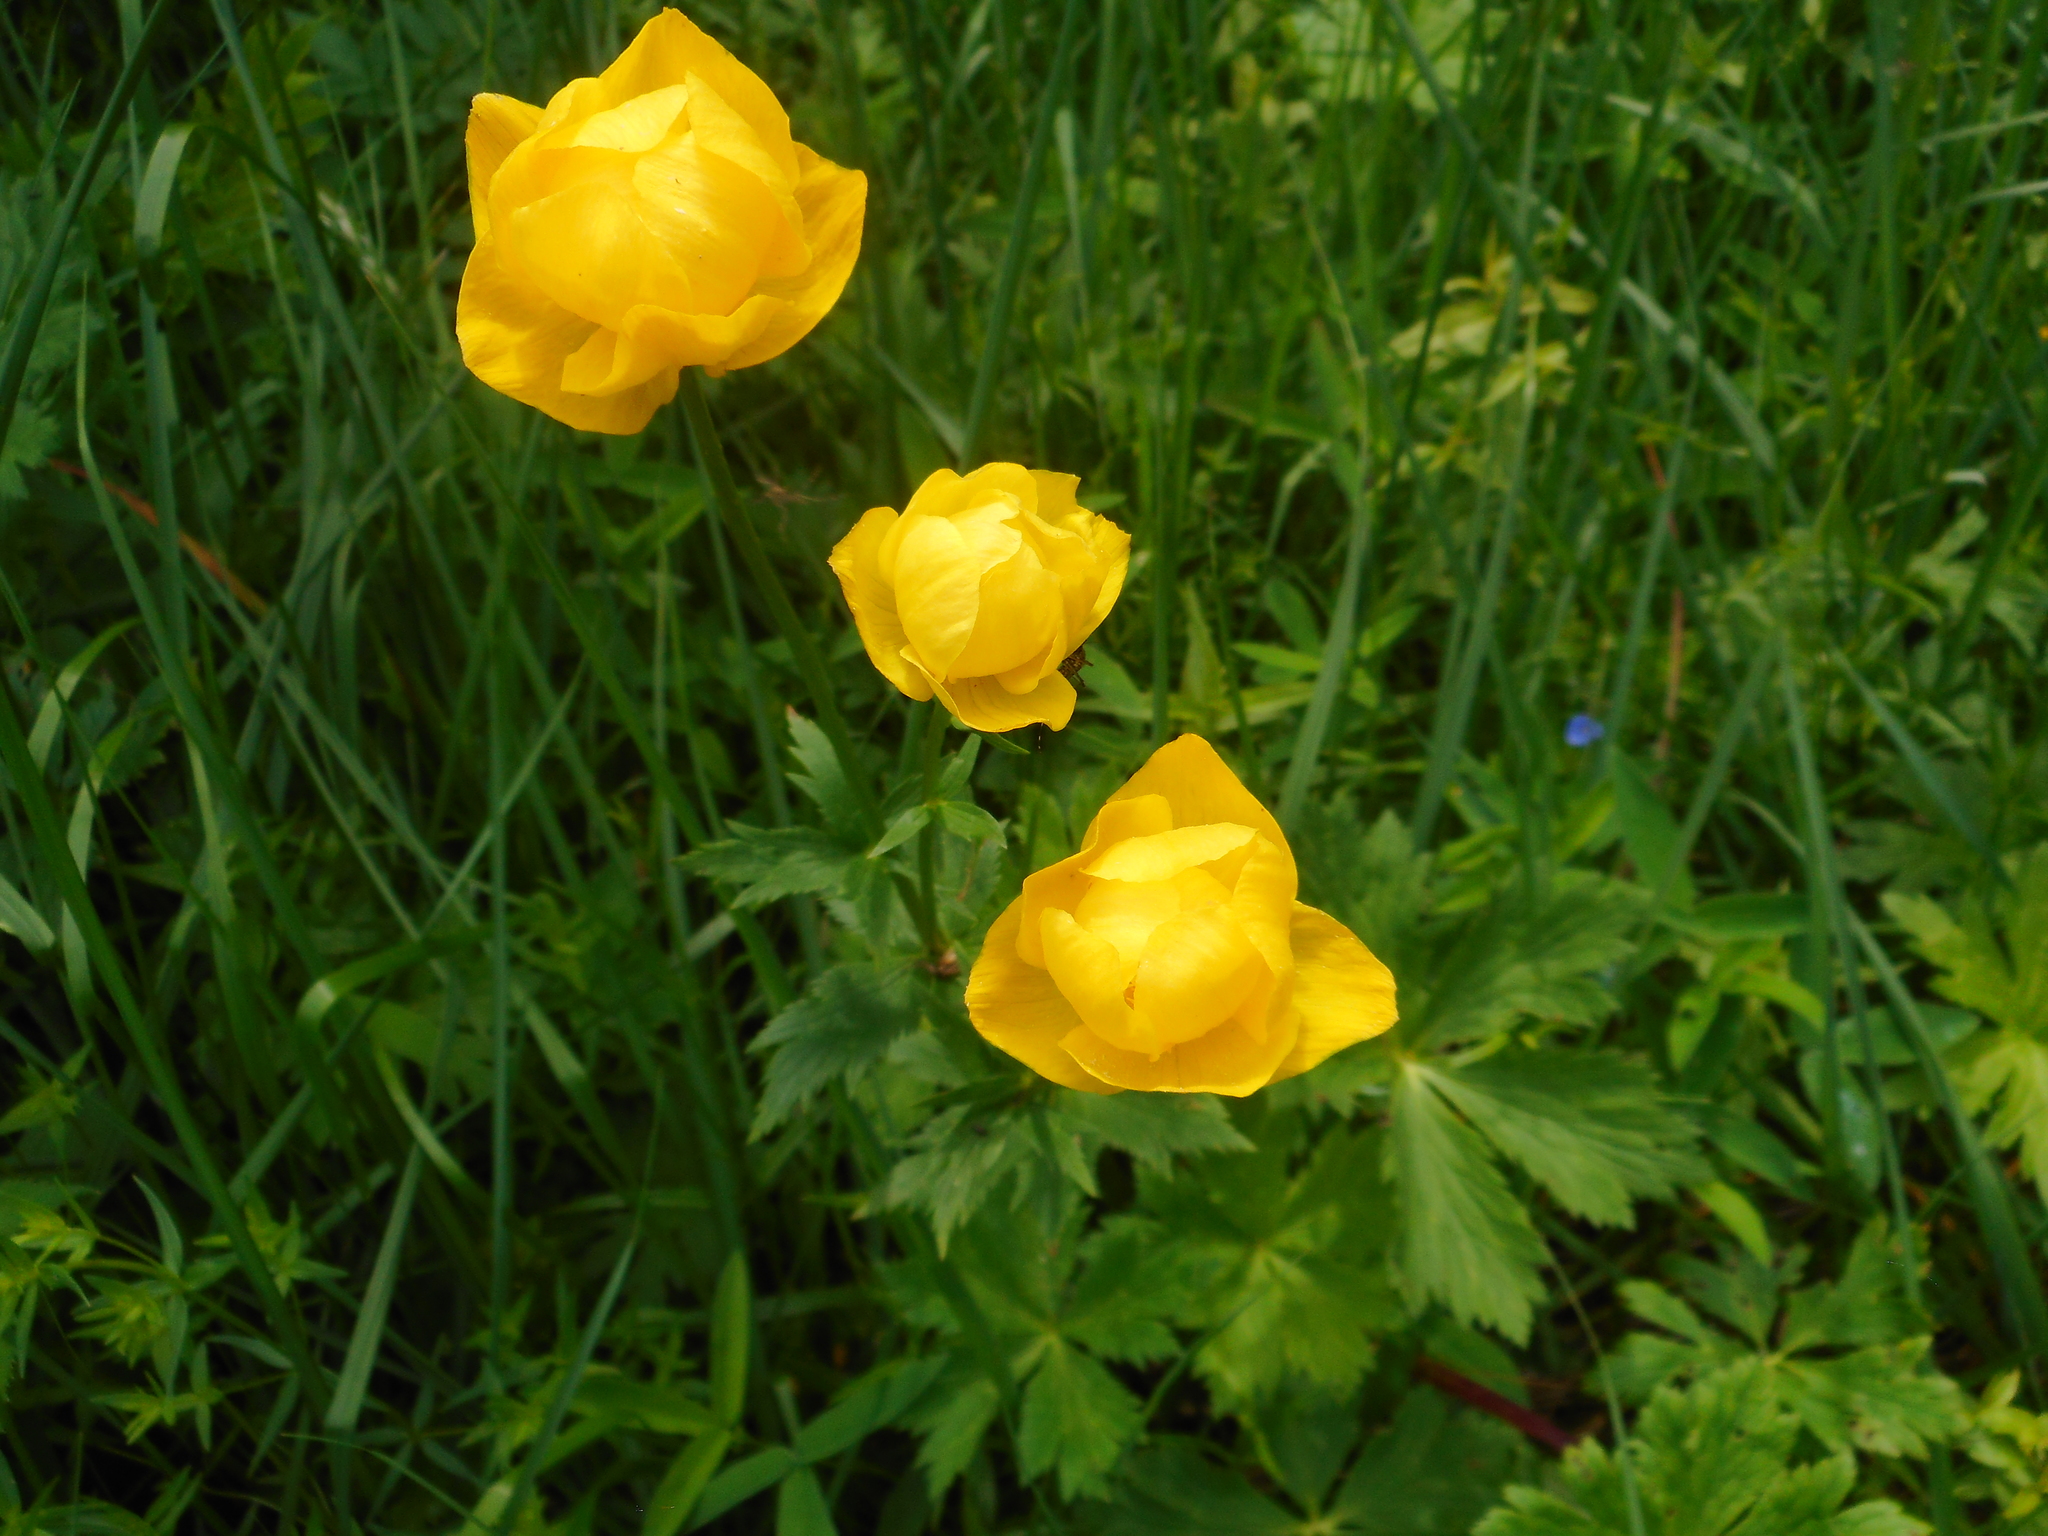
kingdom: Plantae
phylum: Tracheophyta
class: Magnoliopsida
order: Ranunculales
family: Ranunculaceae
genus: Trollius
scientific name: Trollius europaeus
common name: European globeflower
